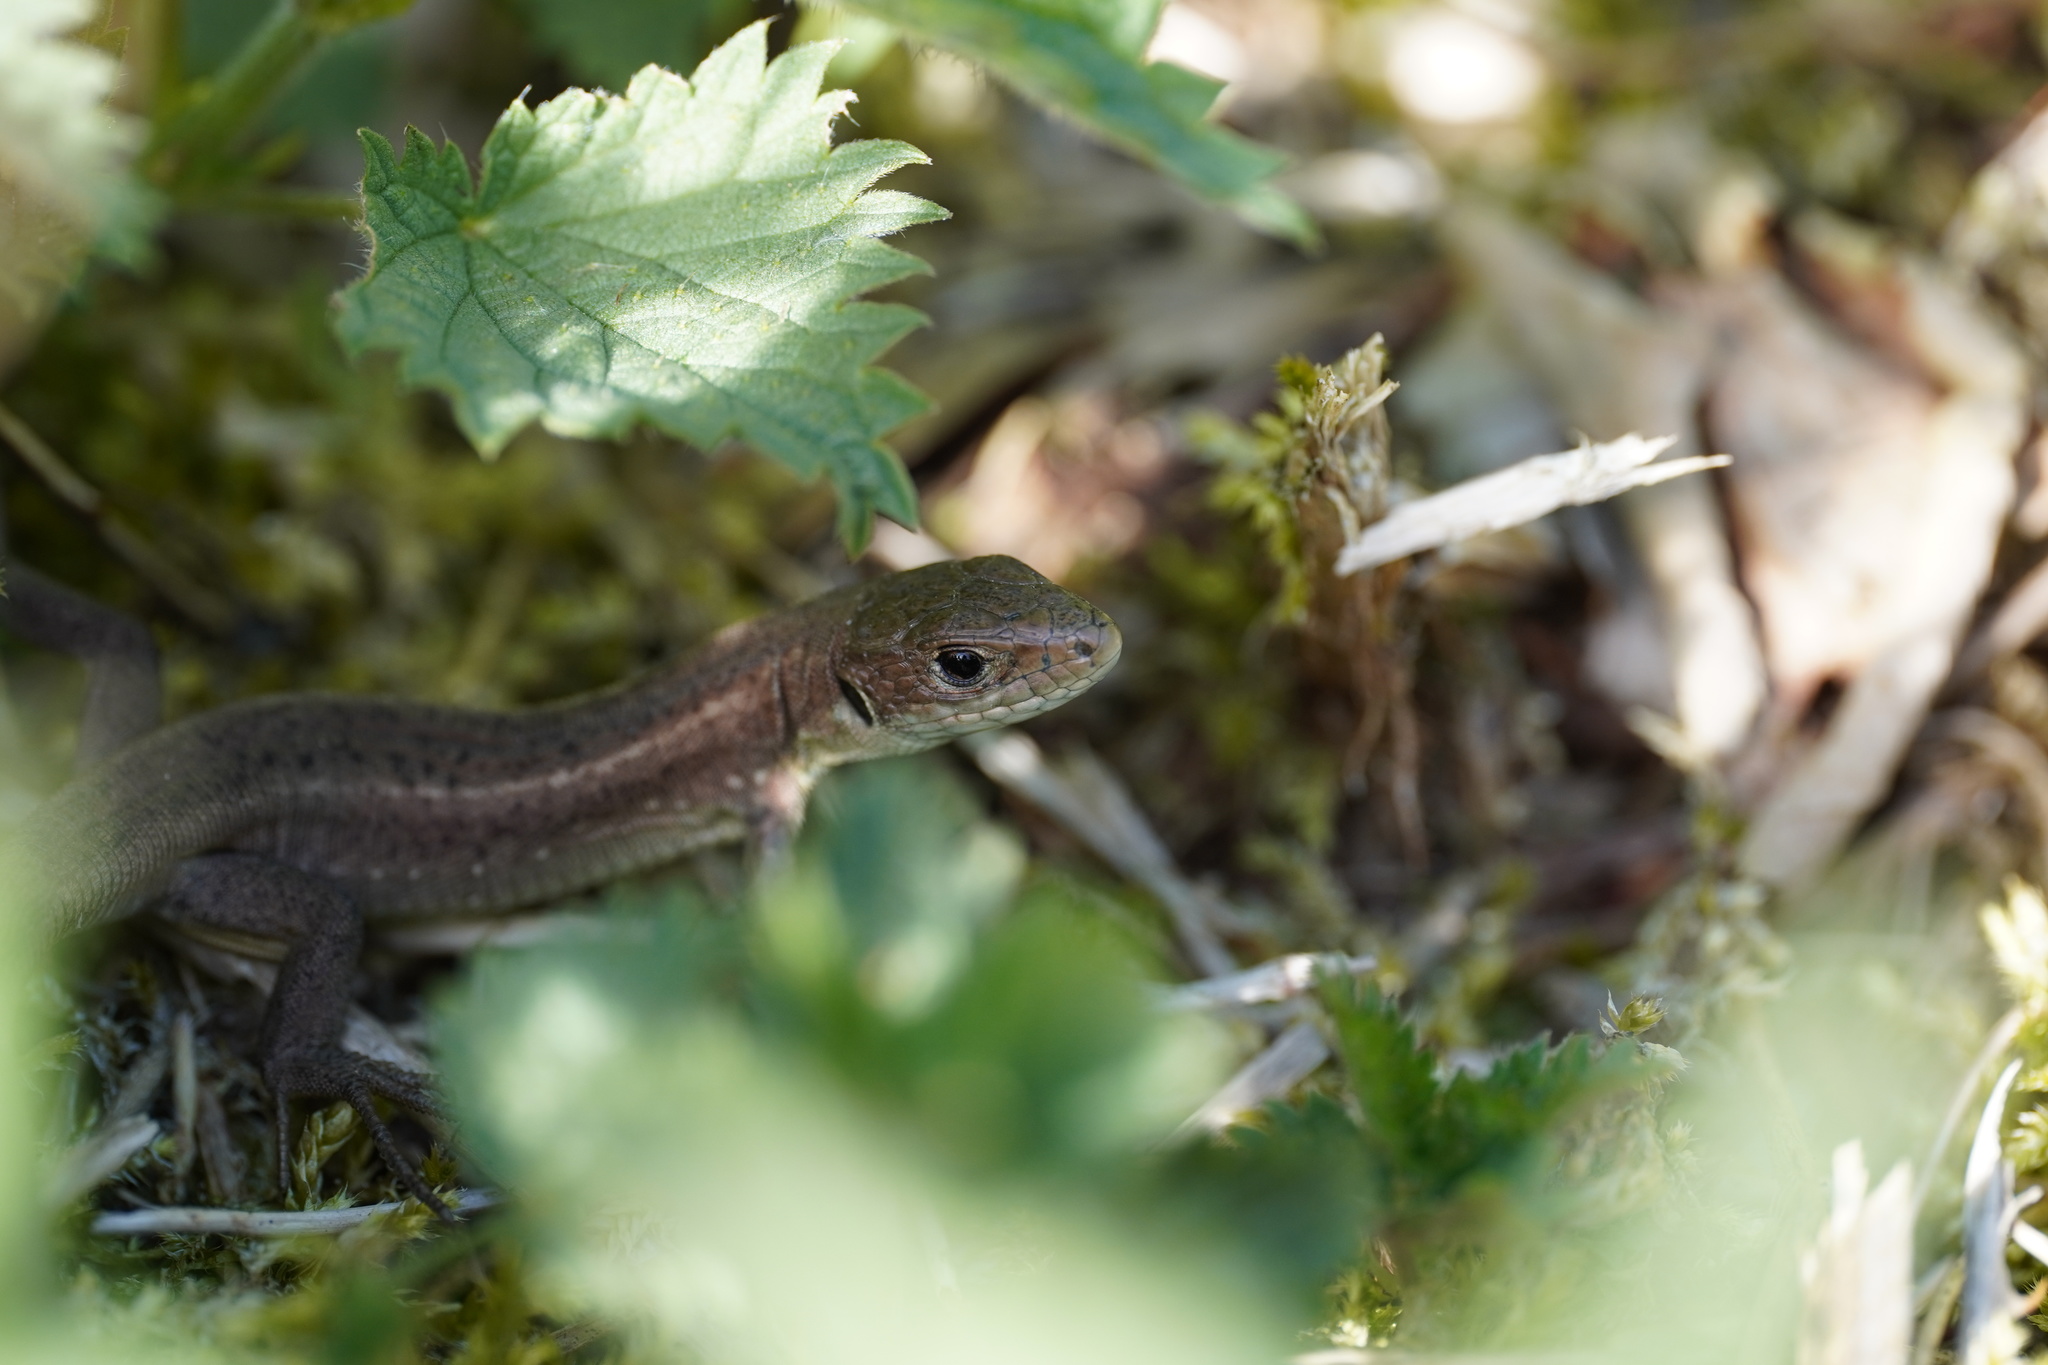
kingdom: Animalia
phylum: Chordata
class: Squamata
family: Lacertidae
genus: Lacerta
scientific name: Lacerta viridis
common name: European green lizard
